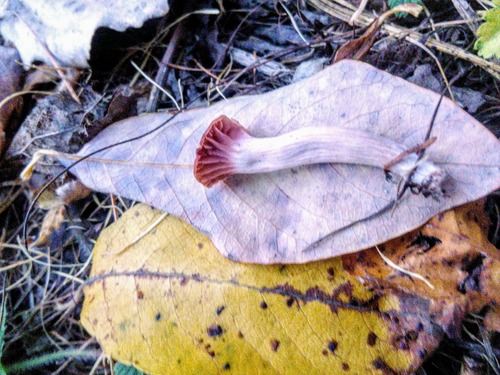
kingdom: Fungi
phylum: Basidiomycota
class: Agaricomycetes
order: Agaricales
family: Hydnangiaceae
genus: Laccaria
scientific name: Laccaria
